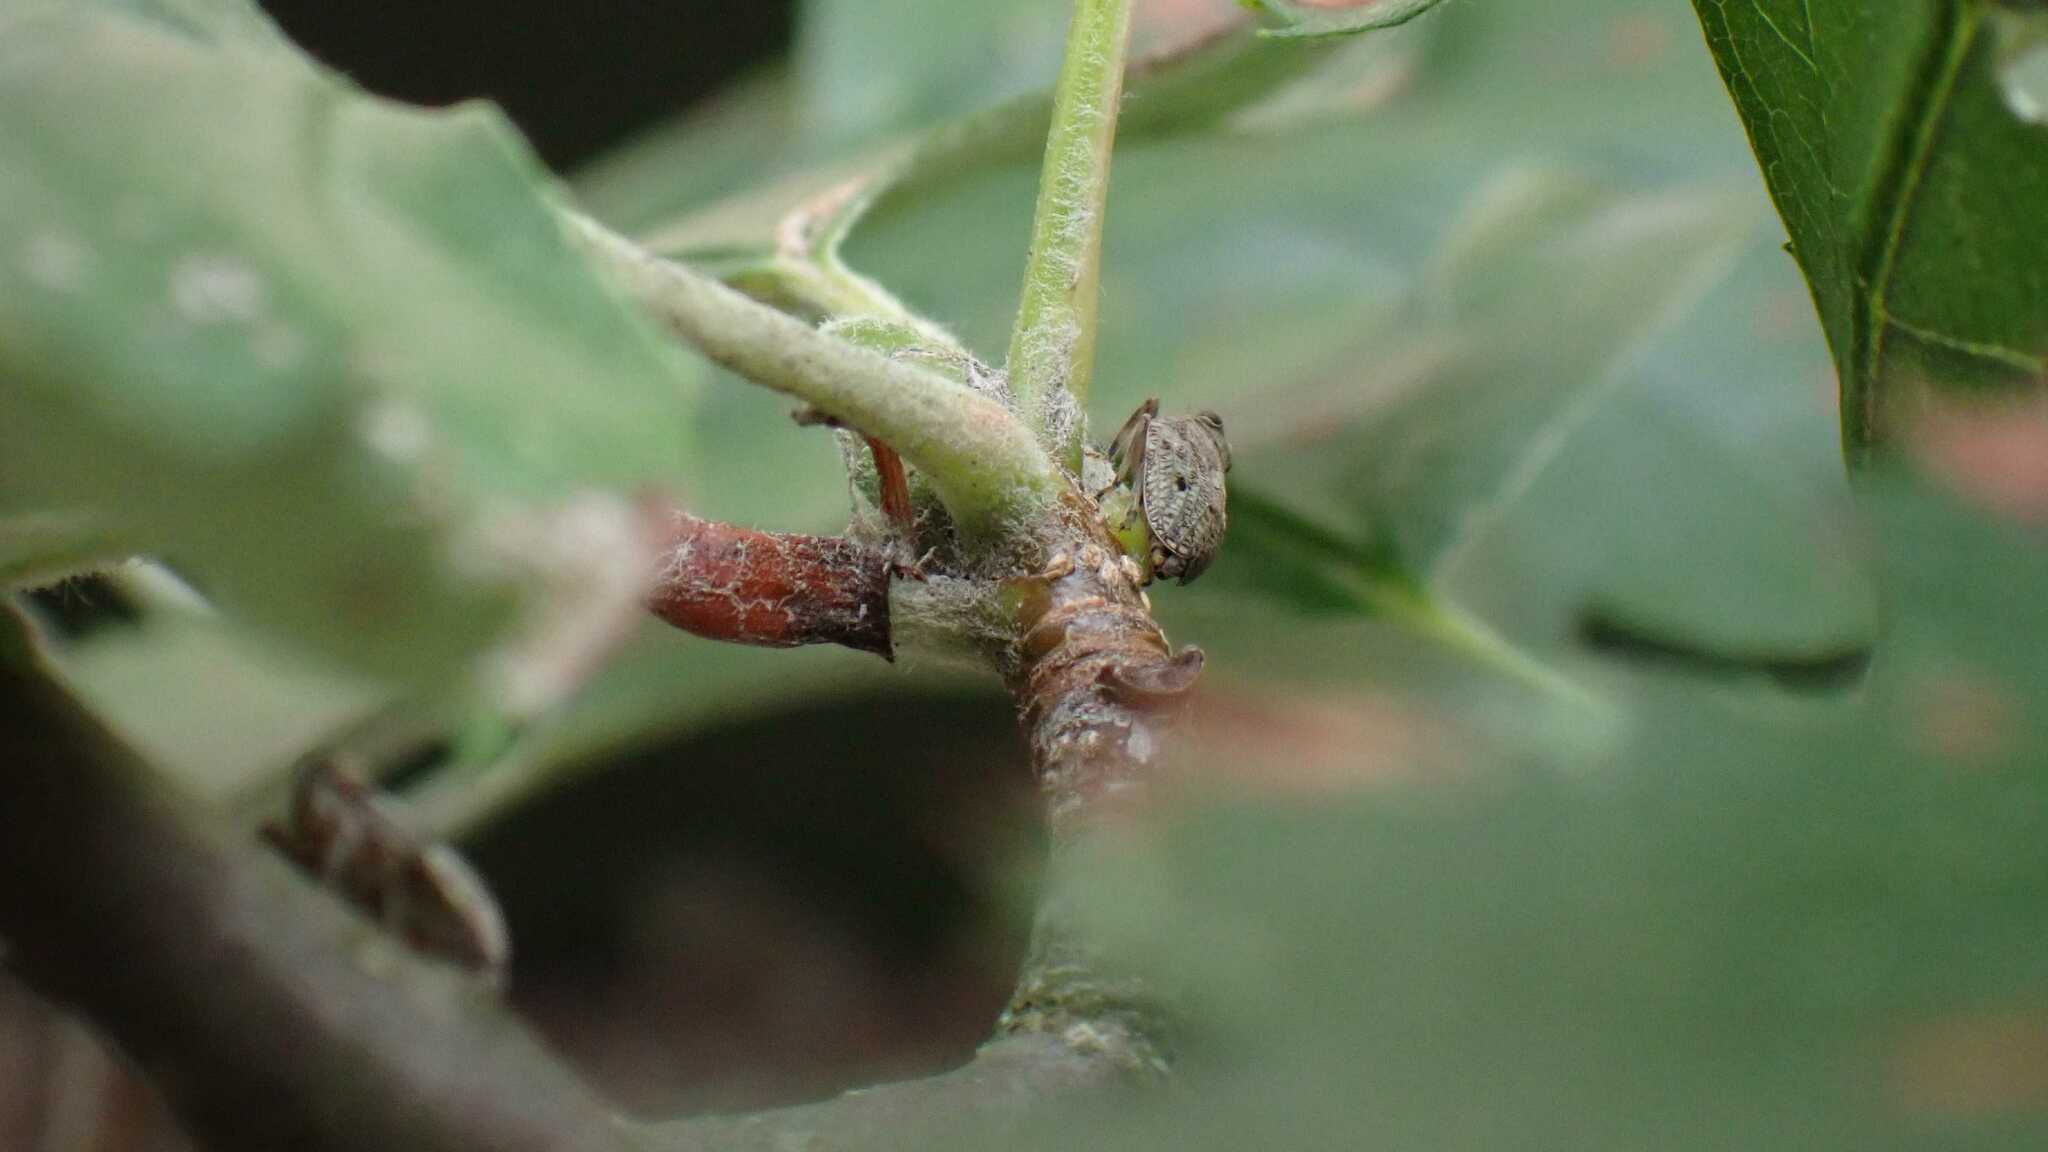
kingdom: Animalia
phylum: Arthropoda
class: Insecta
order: Hemiptera
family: Issidae
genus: Issus
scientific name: Issus coleoptratus
